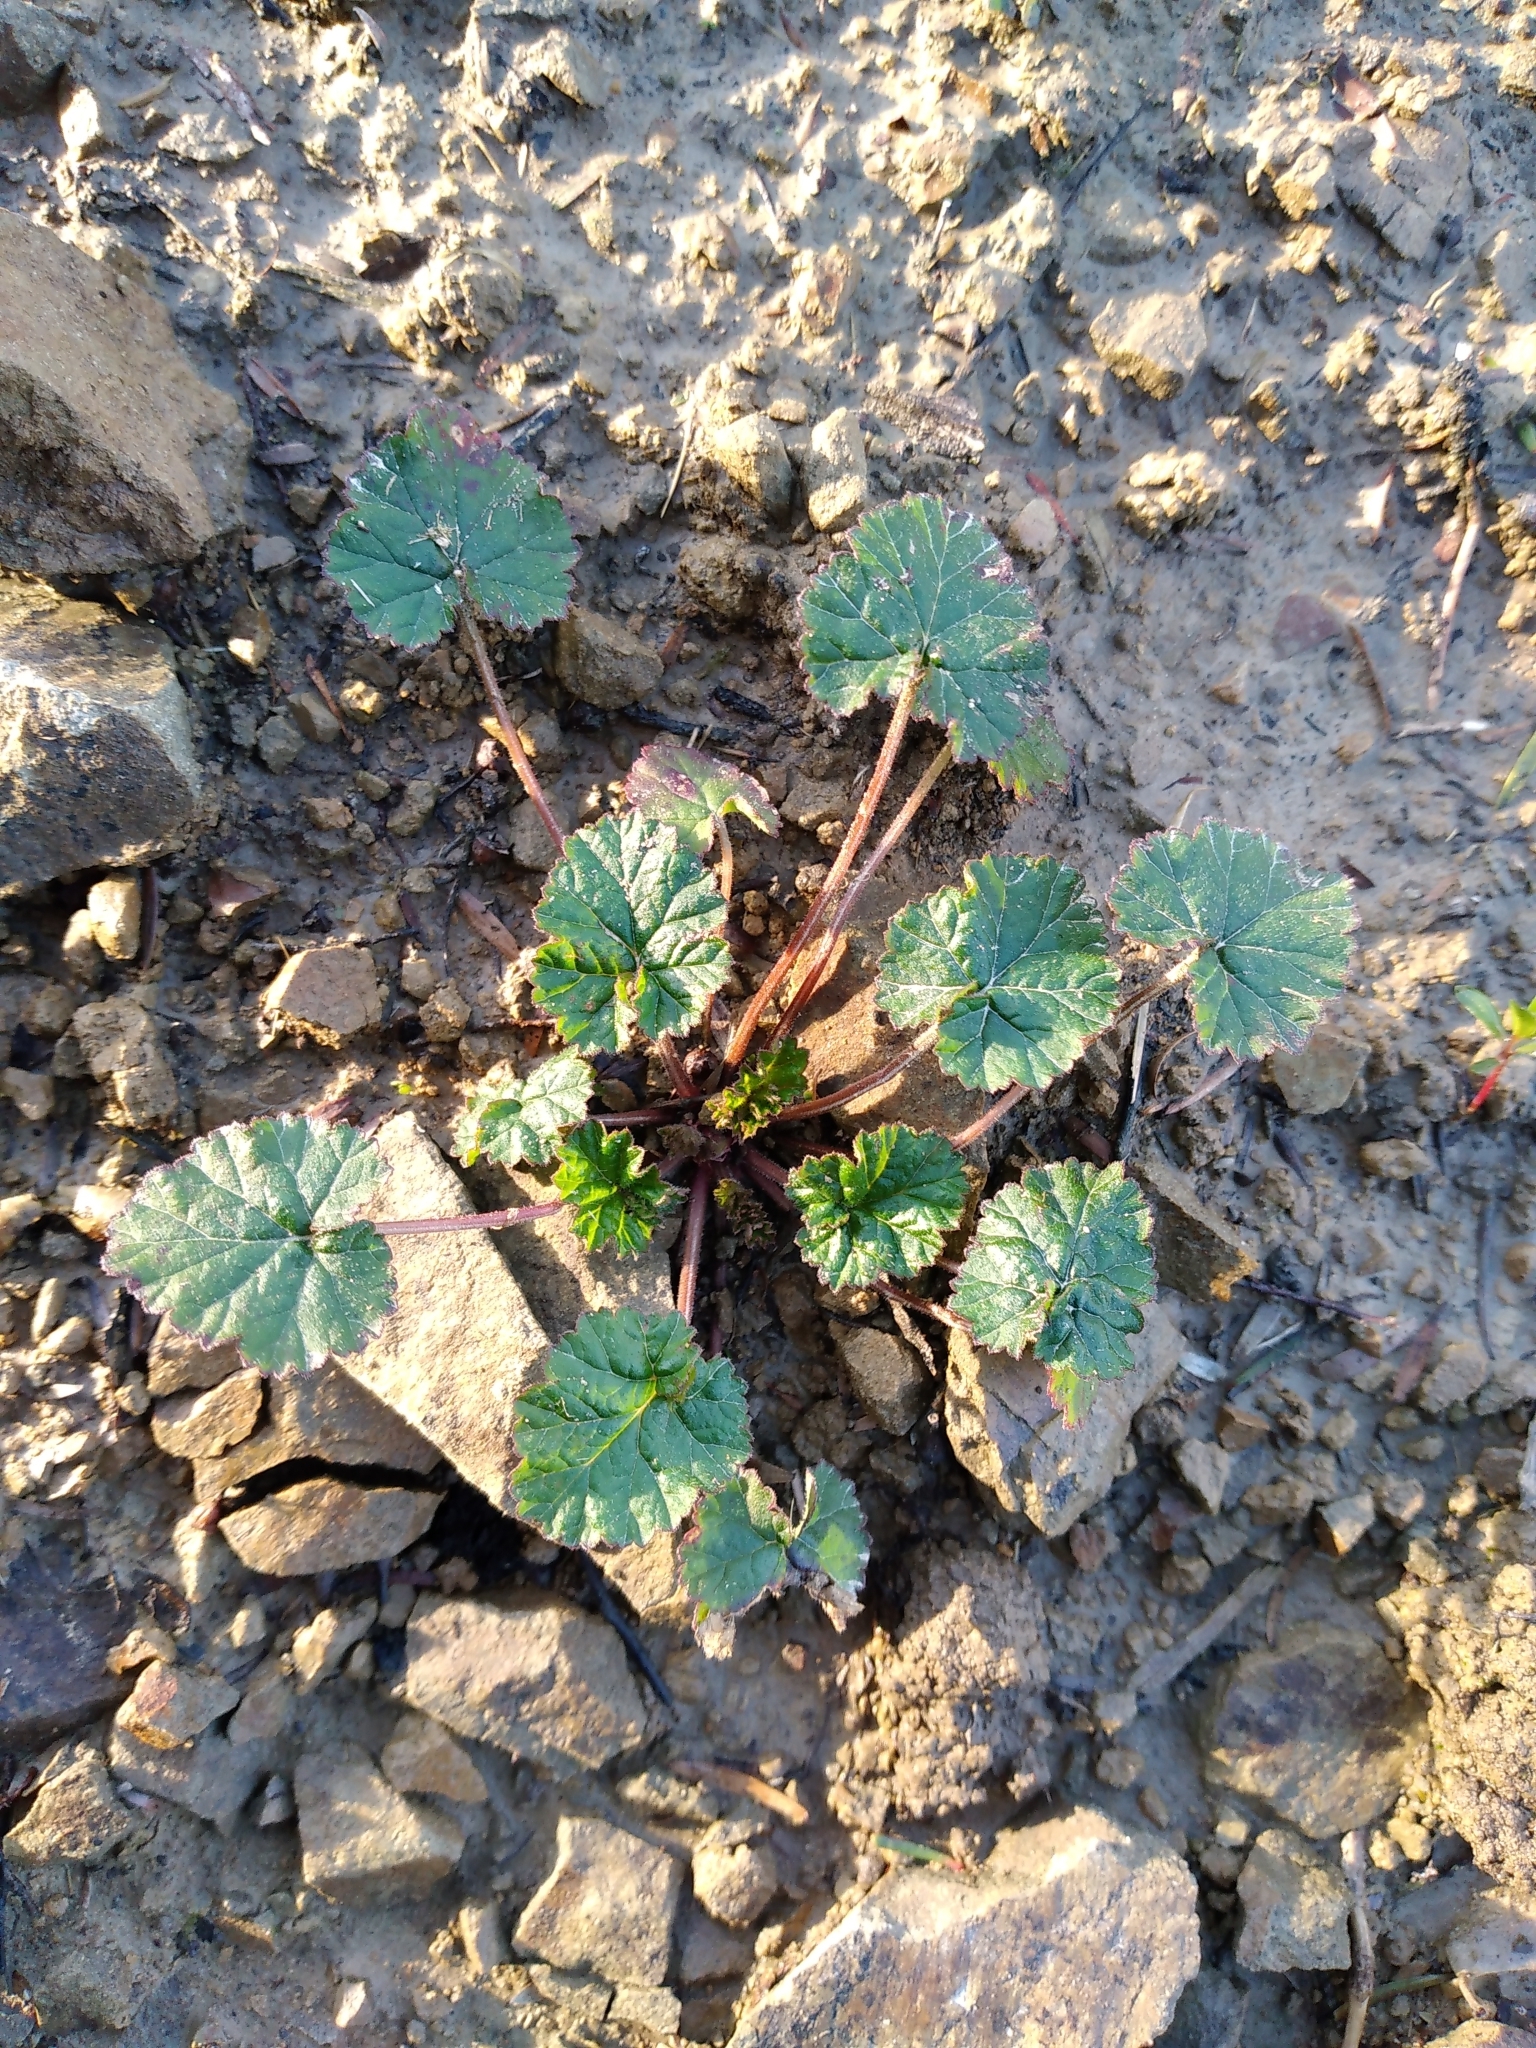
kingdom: Plantae
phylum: Tracheophyta
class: Magnoliopsida
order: Geraniales
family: Geraniaceae
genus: Pelargonium
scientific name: Pelargonium inodorum
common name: Kopata geranium
